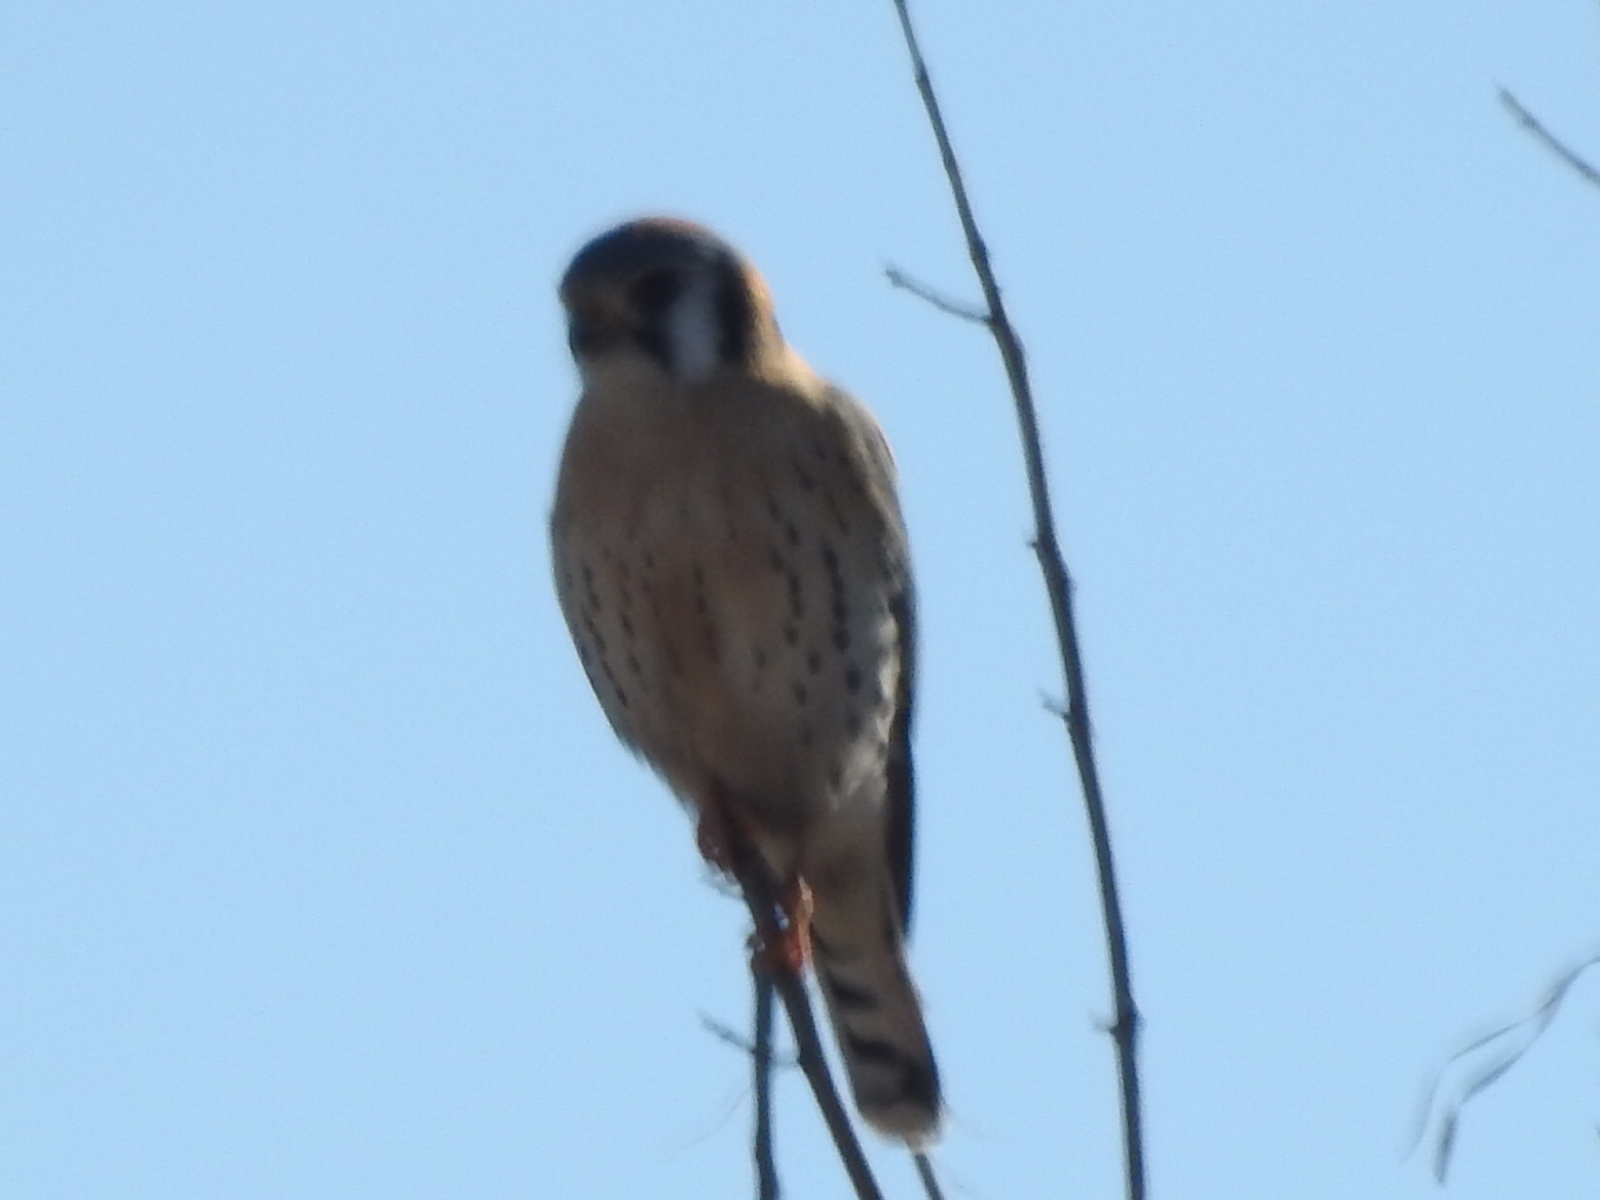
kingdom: Animalia
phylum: Chordata
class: Aves
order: Falconiformes
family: Falconidae
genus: Falco
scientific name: Falco sparverius
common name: American kestrel
